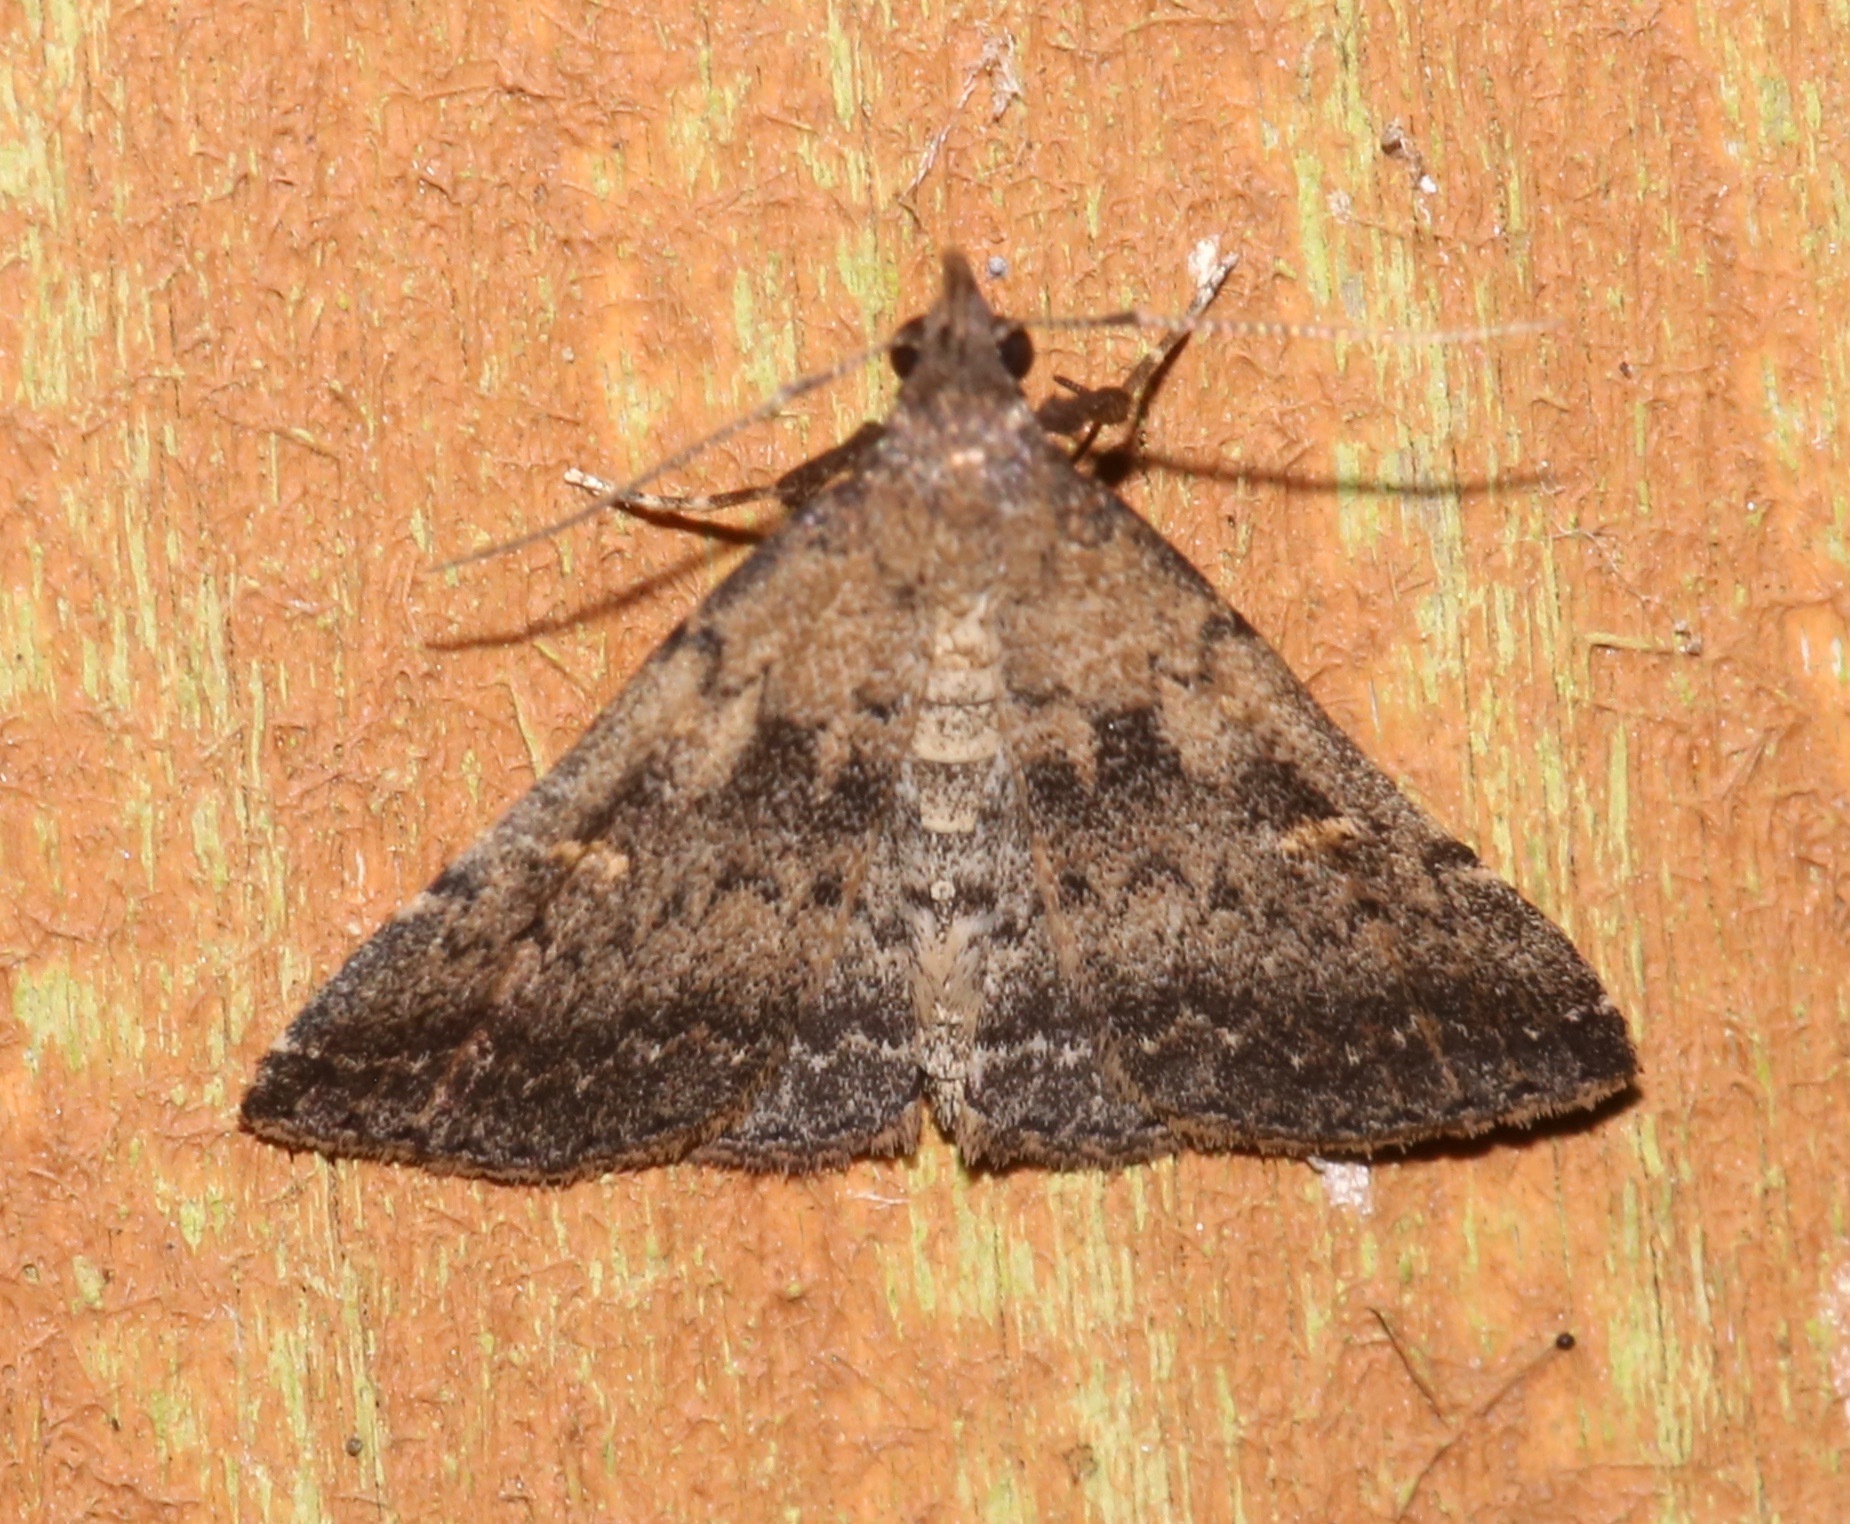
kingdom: Animalia
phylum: Arthropoda
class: Insecta
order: Lepidoptera
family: Erebidae
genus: Tetanolita
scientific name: Tetanolita floridana
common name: Florida tetanolita moth
